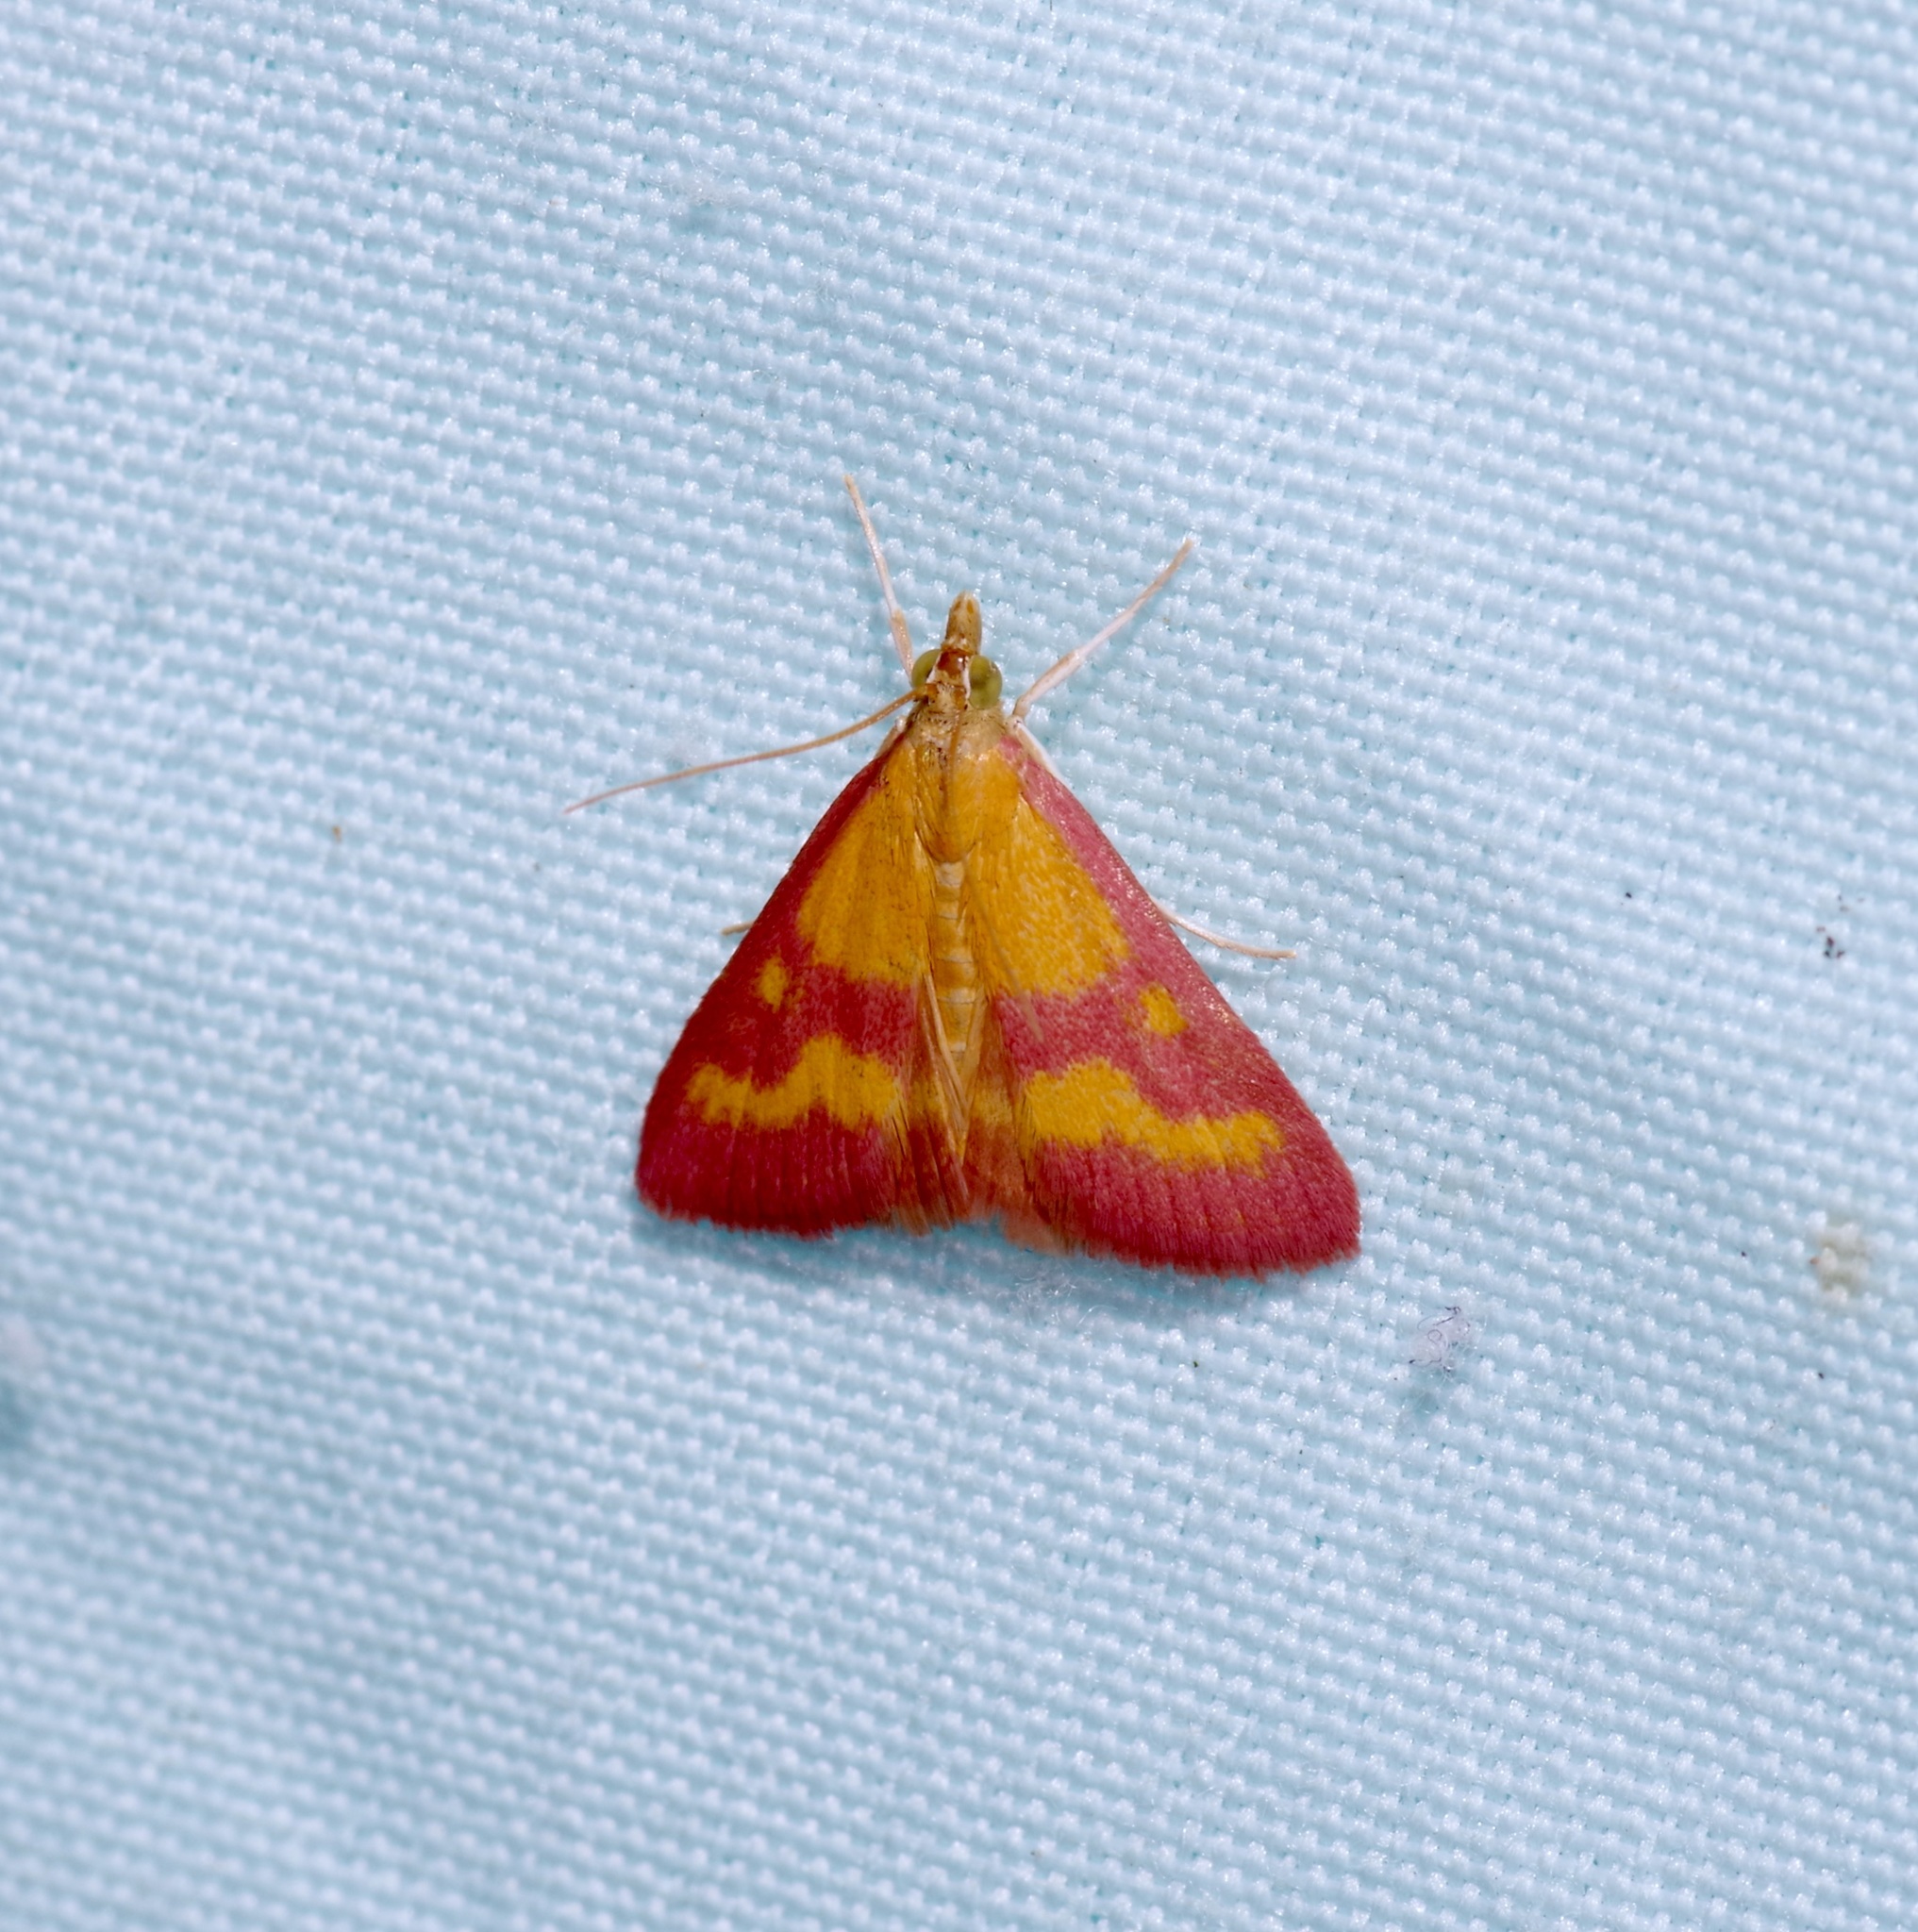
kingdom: Animalia
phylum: Arthropoda
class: Insecta
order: Lepidoptera
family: Crambidae
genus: Pyrausta
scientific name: Pyrausta laticlavia
